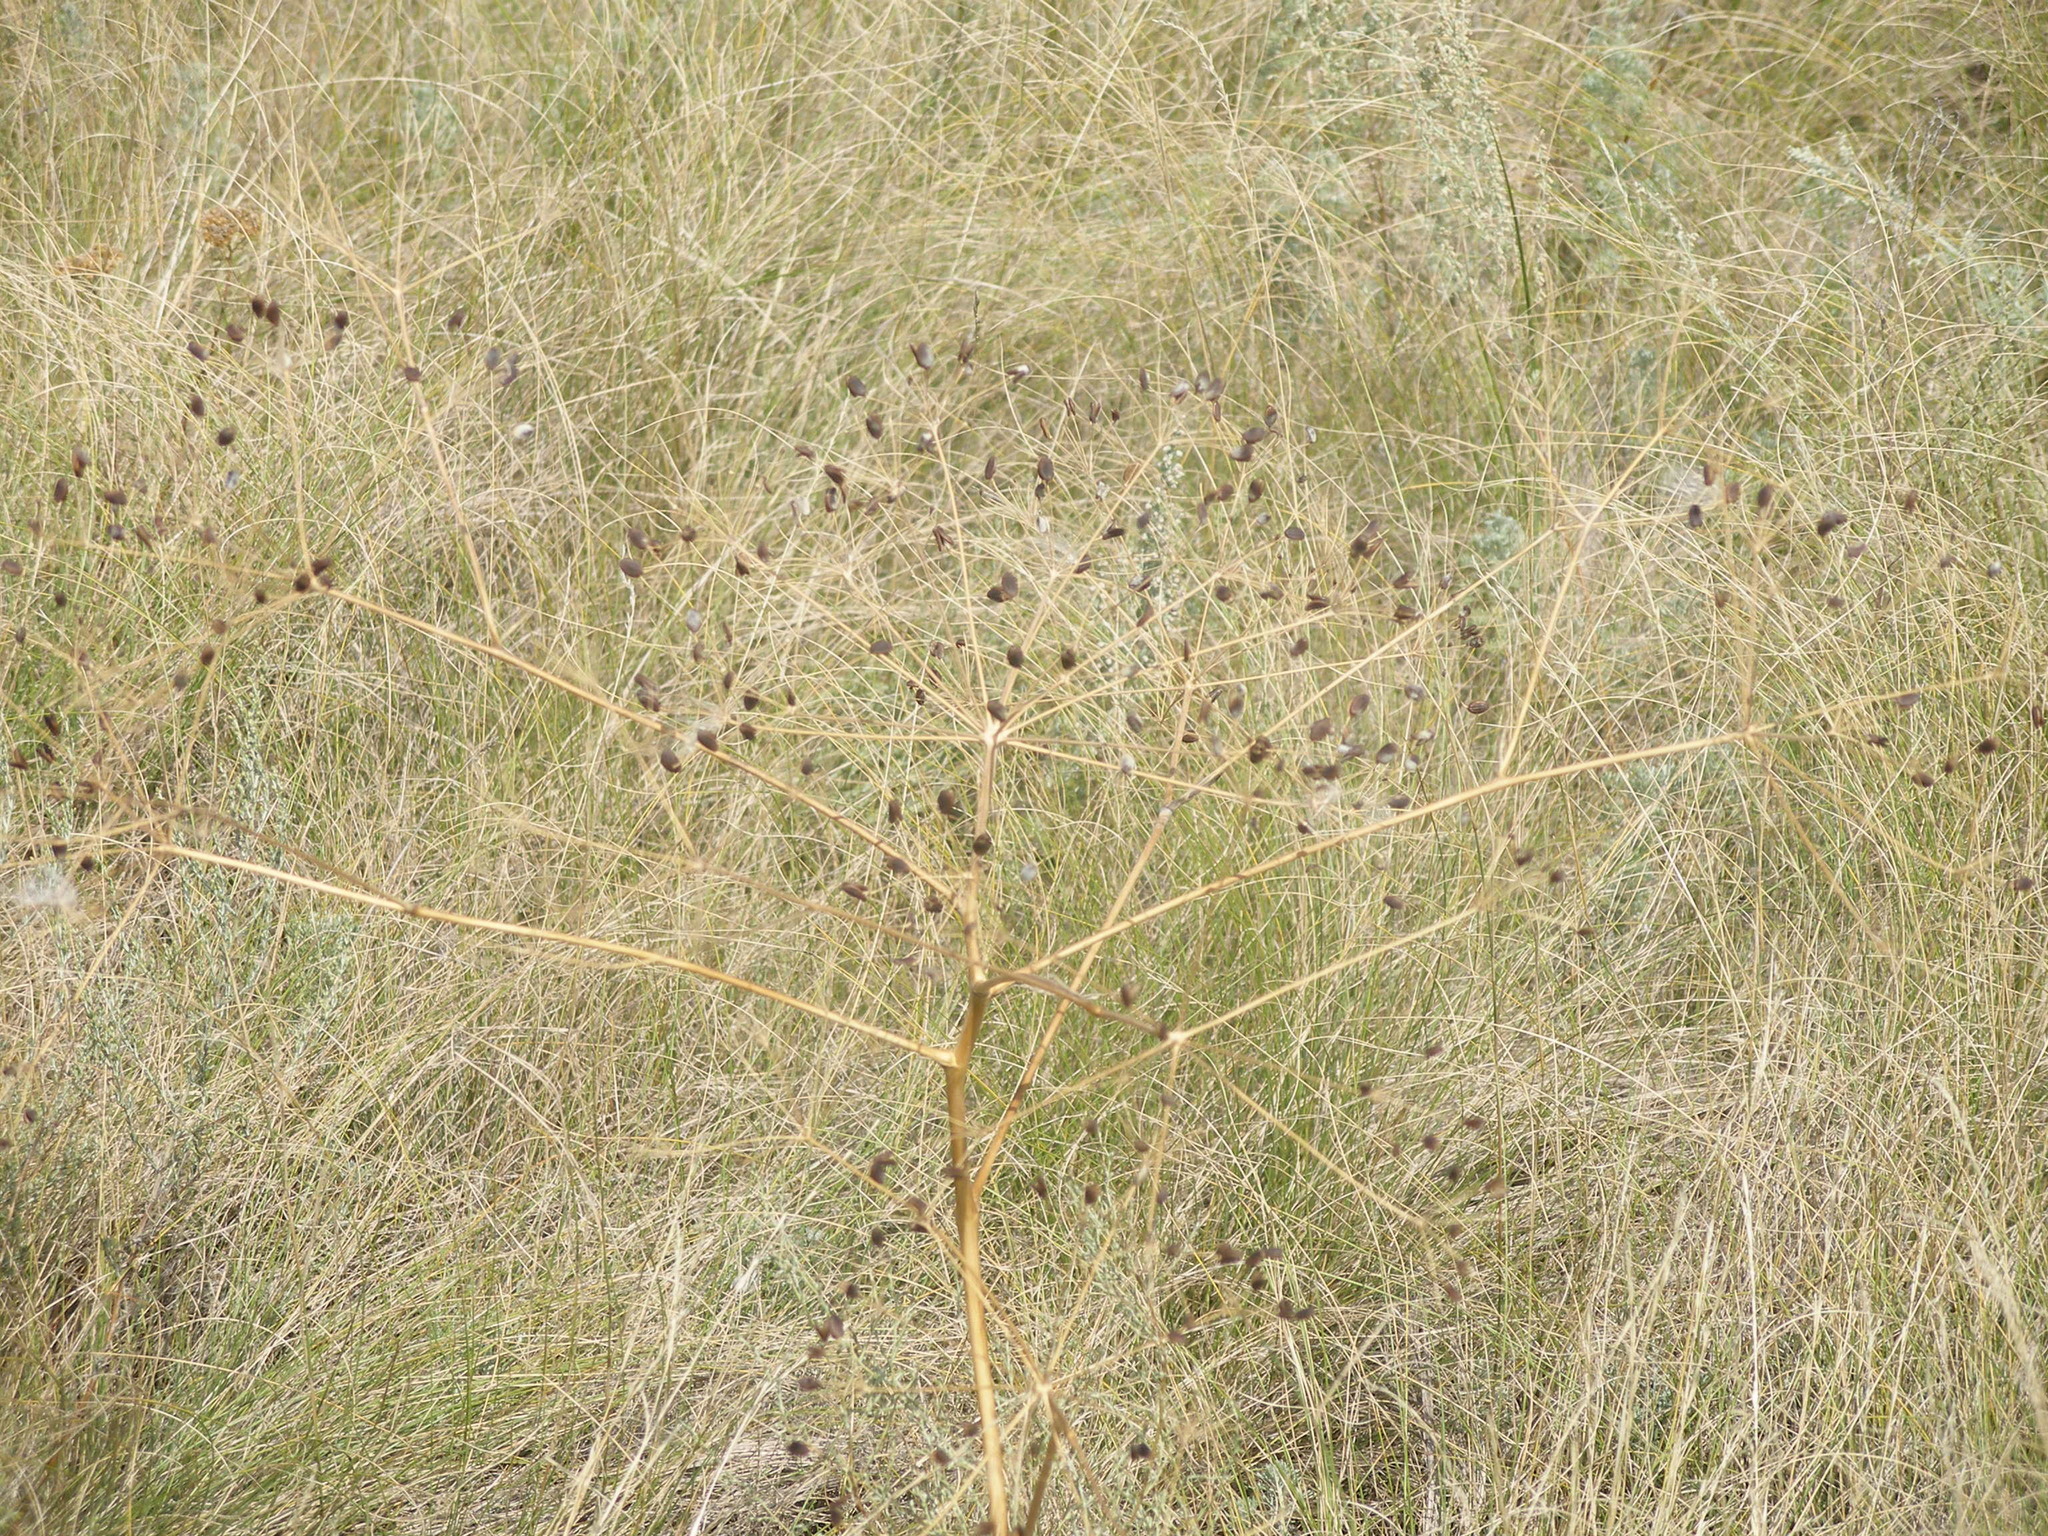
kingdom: Plantae
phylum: Tracheophyta
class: Magnoliopsida
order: Apiales
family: Apiaceae
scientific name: Apiaceae
